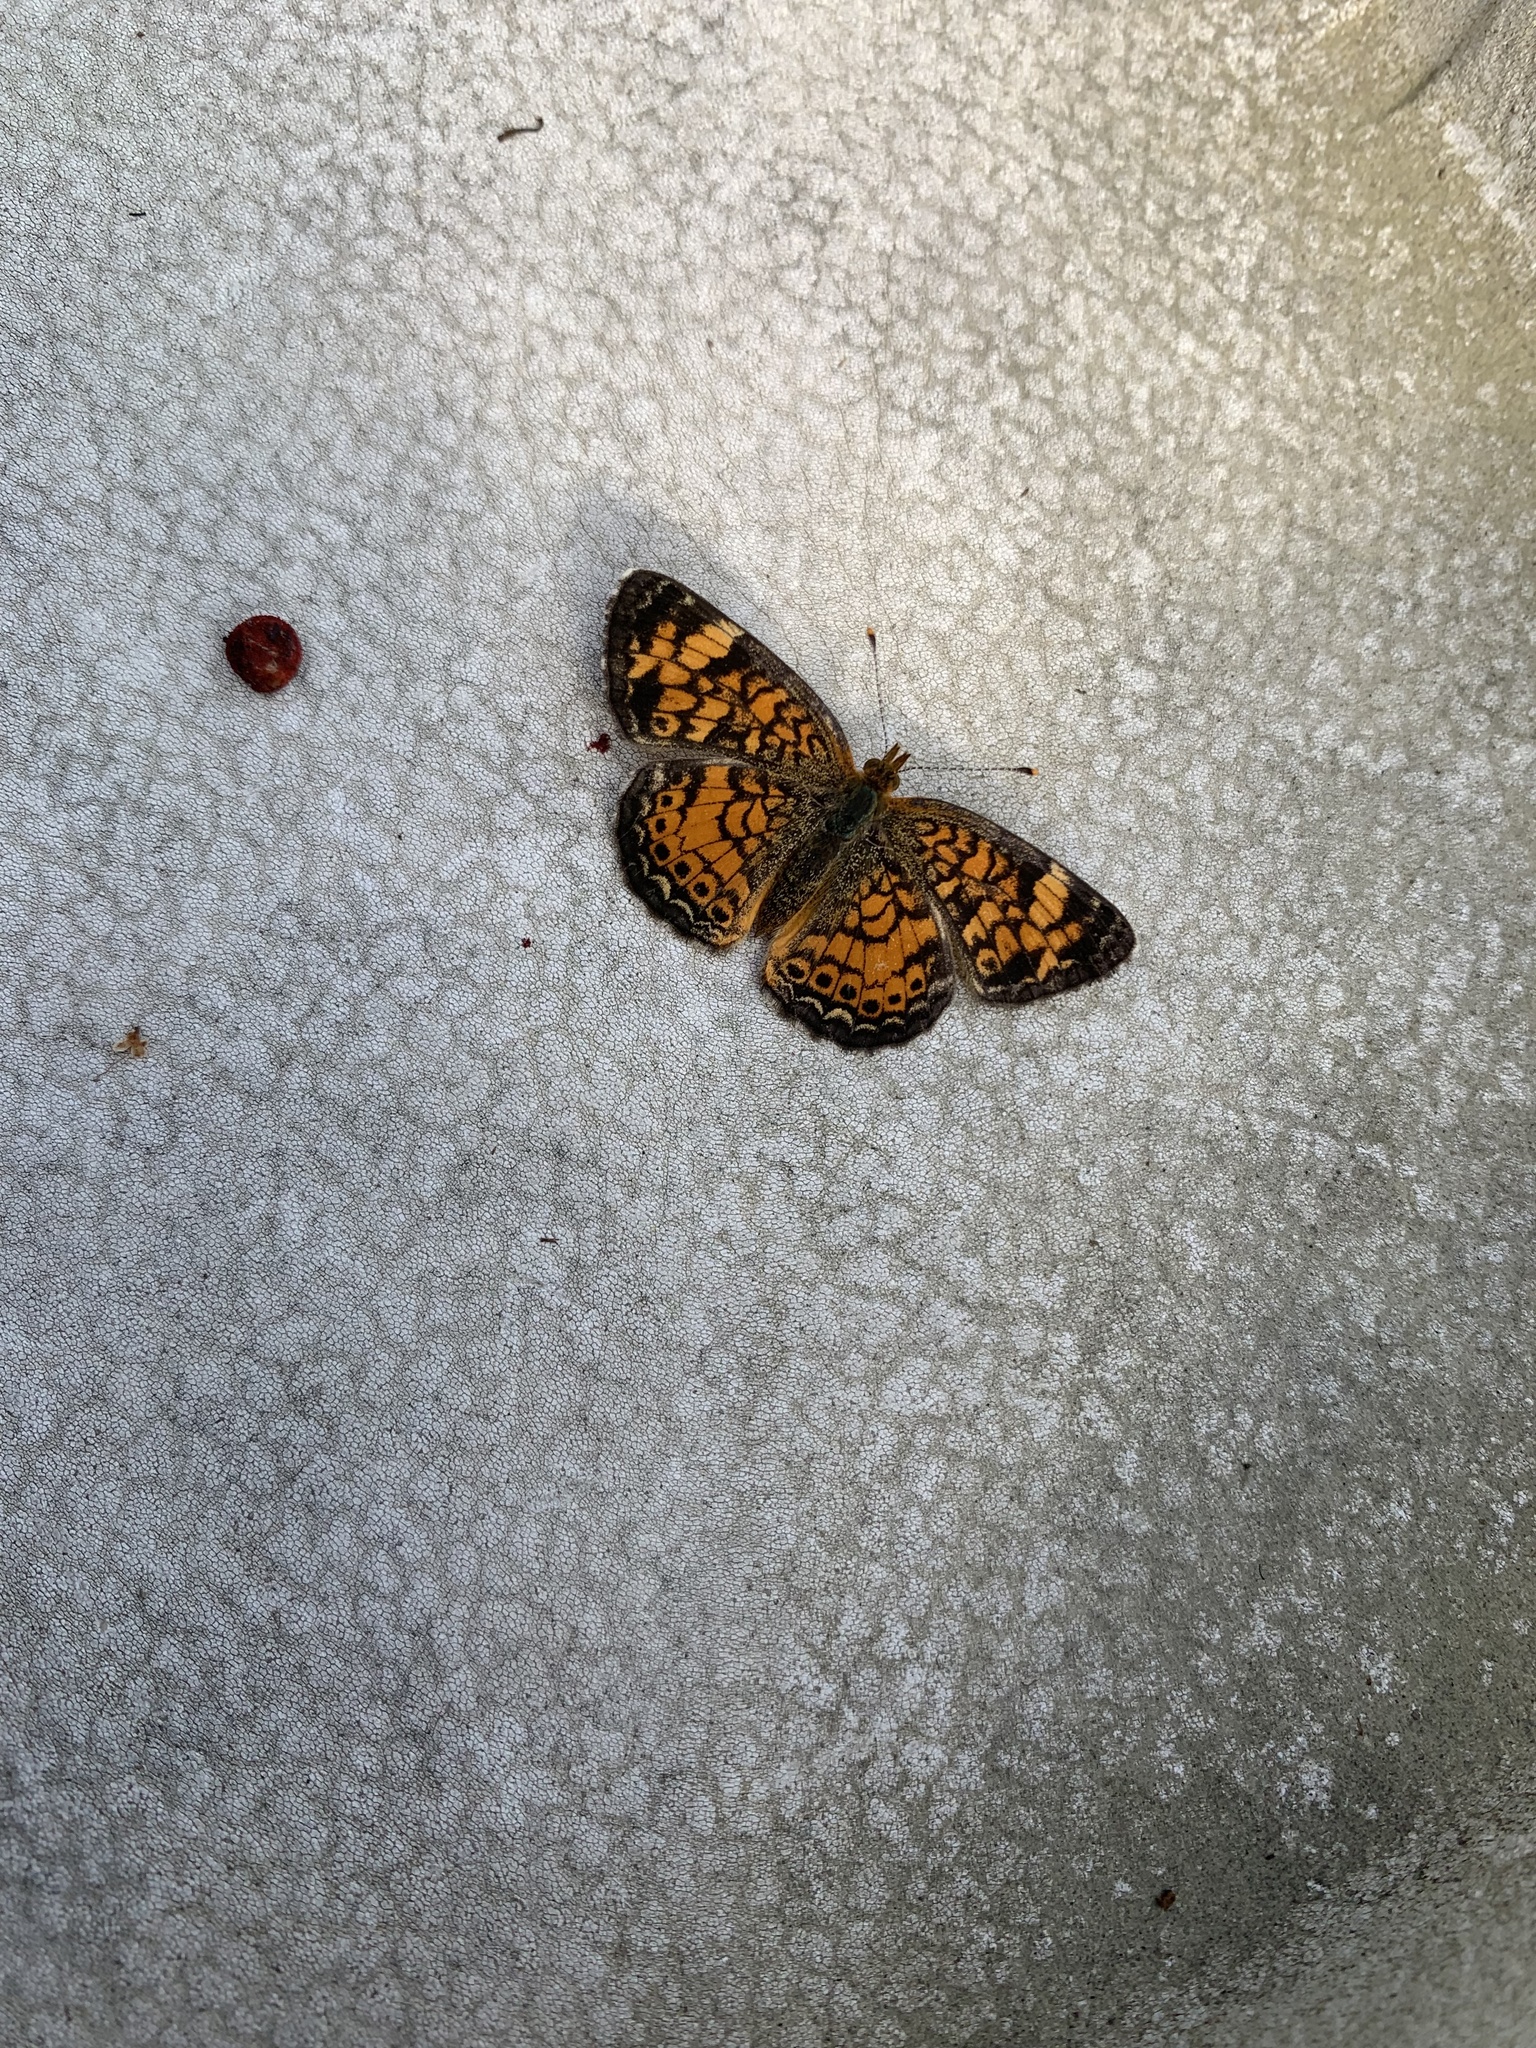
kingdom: Animalia
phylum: Arthropoda
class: Insecta
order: Lepidoptera
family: Nymphalidae
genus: Phyciodes
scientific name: Phyciodes tharos
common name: Pearl crescent
